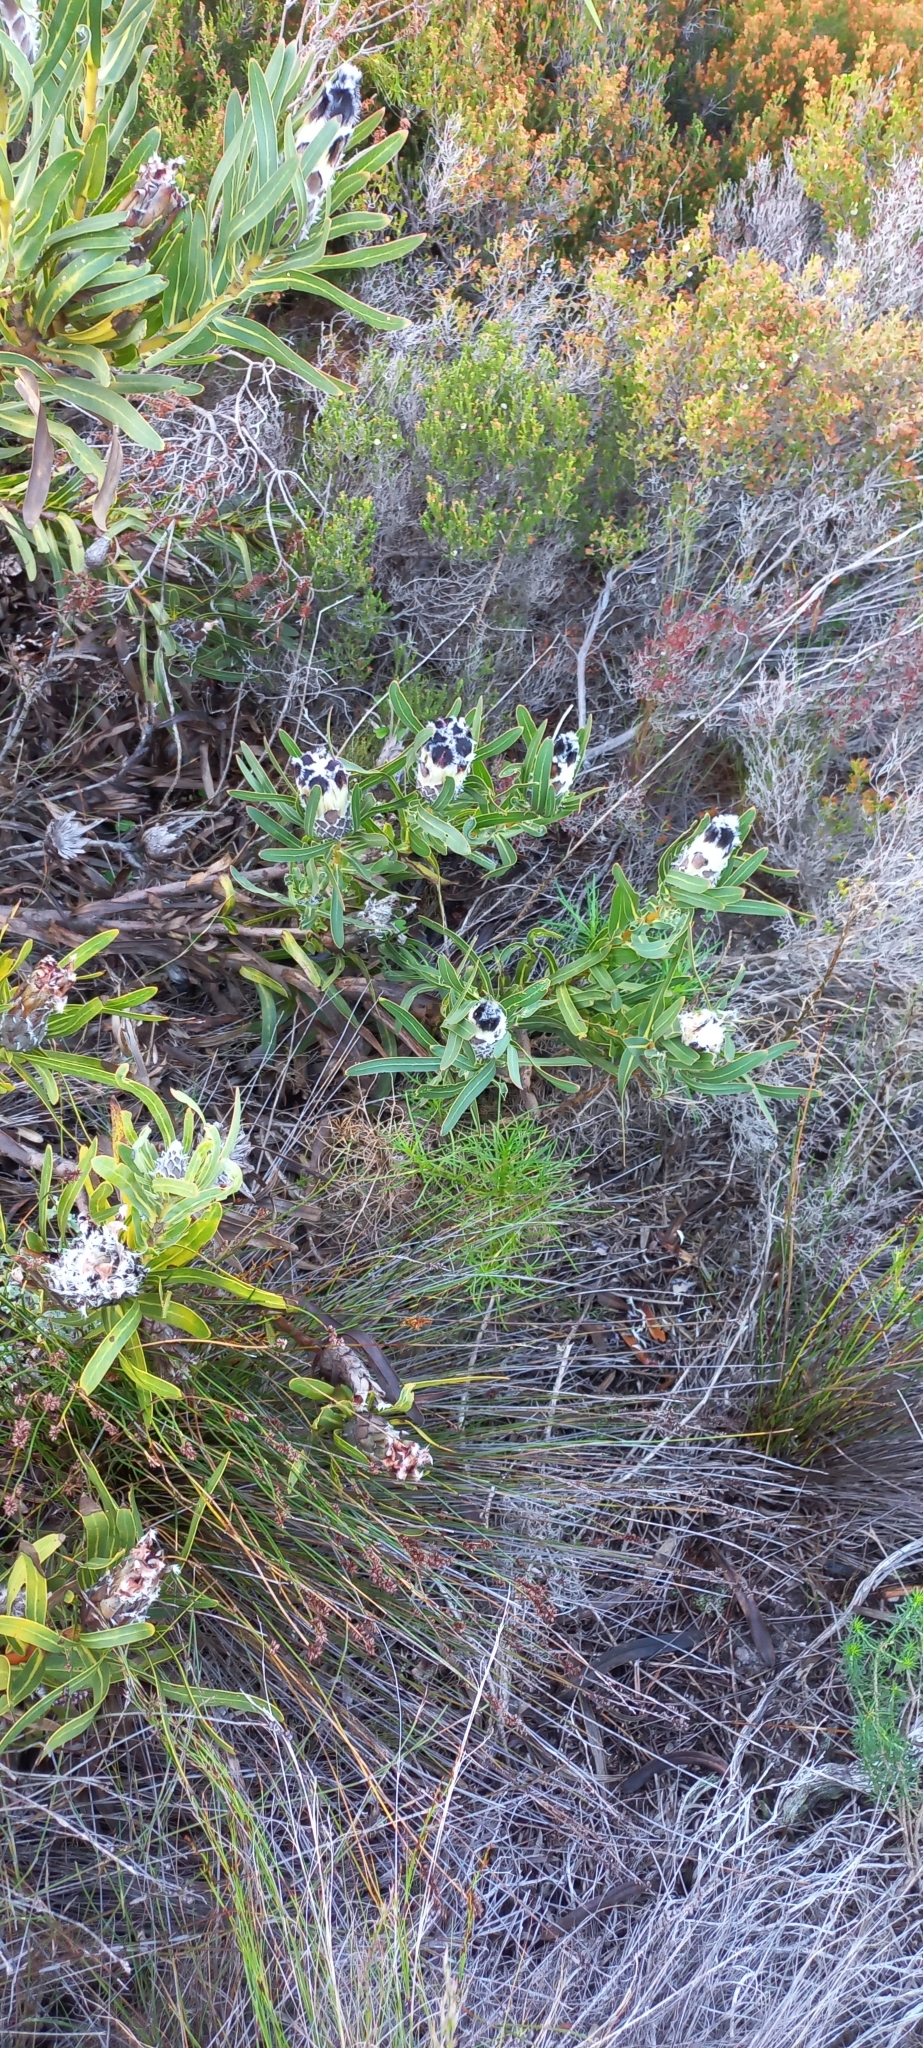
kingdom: Plantae
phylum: Tracheophyta
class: Magnoliopsida
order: Proteales
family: Proteaceae
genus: Protea
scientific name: Protea lepidocarpodendron
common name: Black-bearded protea
